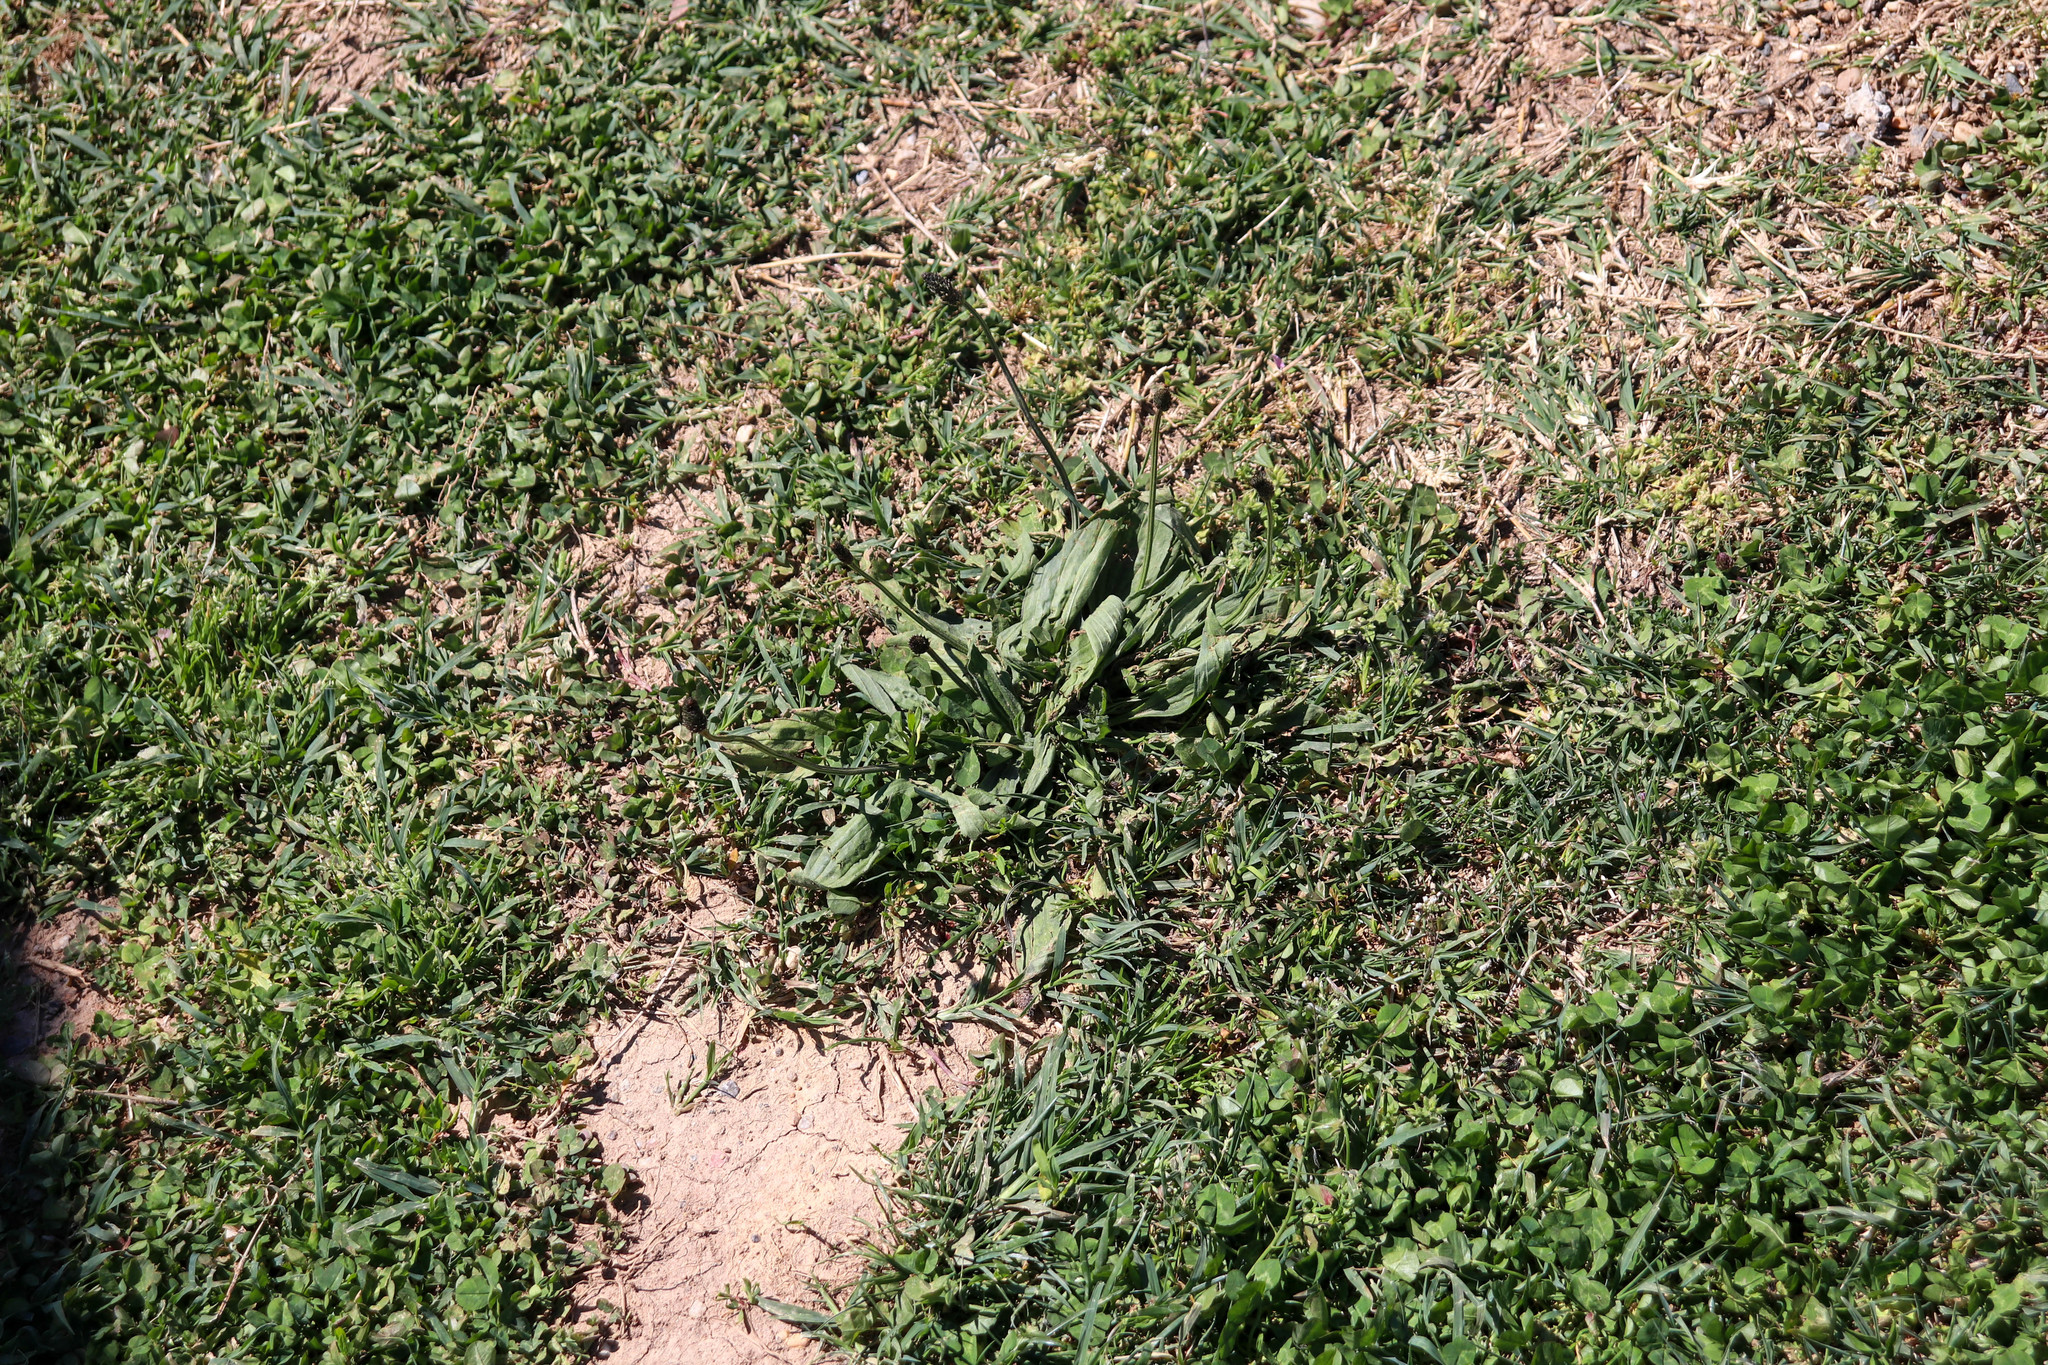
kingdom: Plantae
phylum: Tracheophyta
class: Magnoliopsida
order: Lamiales
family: Plantaginaceae
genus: Plantago
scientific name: Plantago lanceolata
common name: Ribwort plantain
